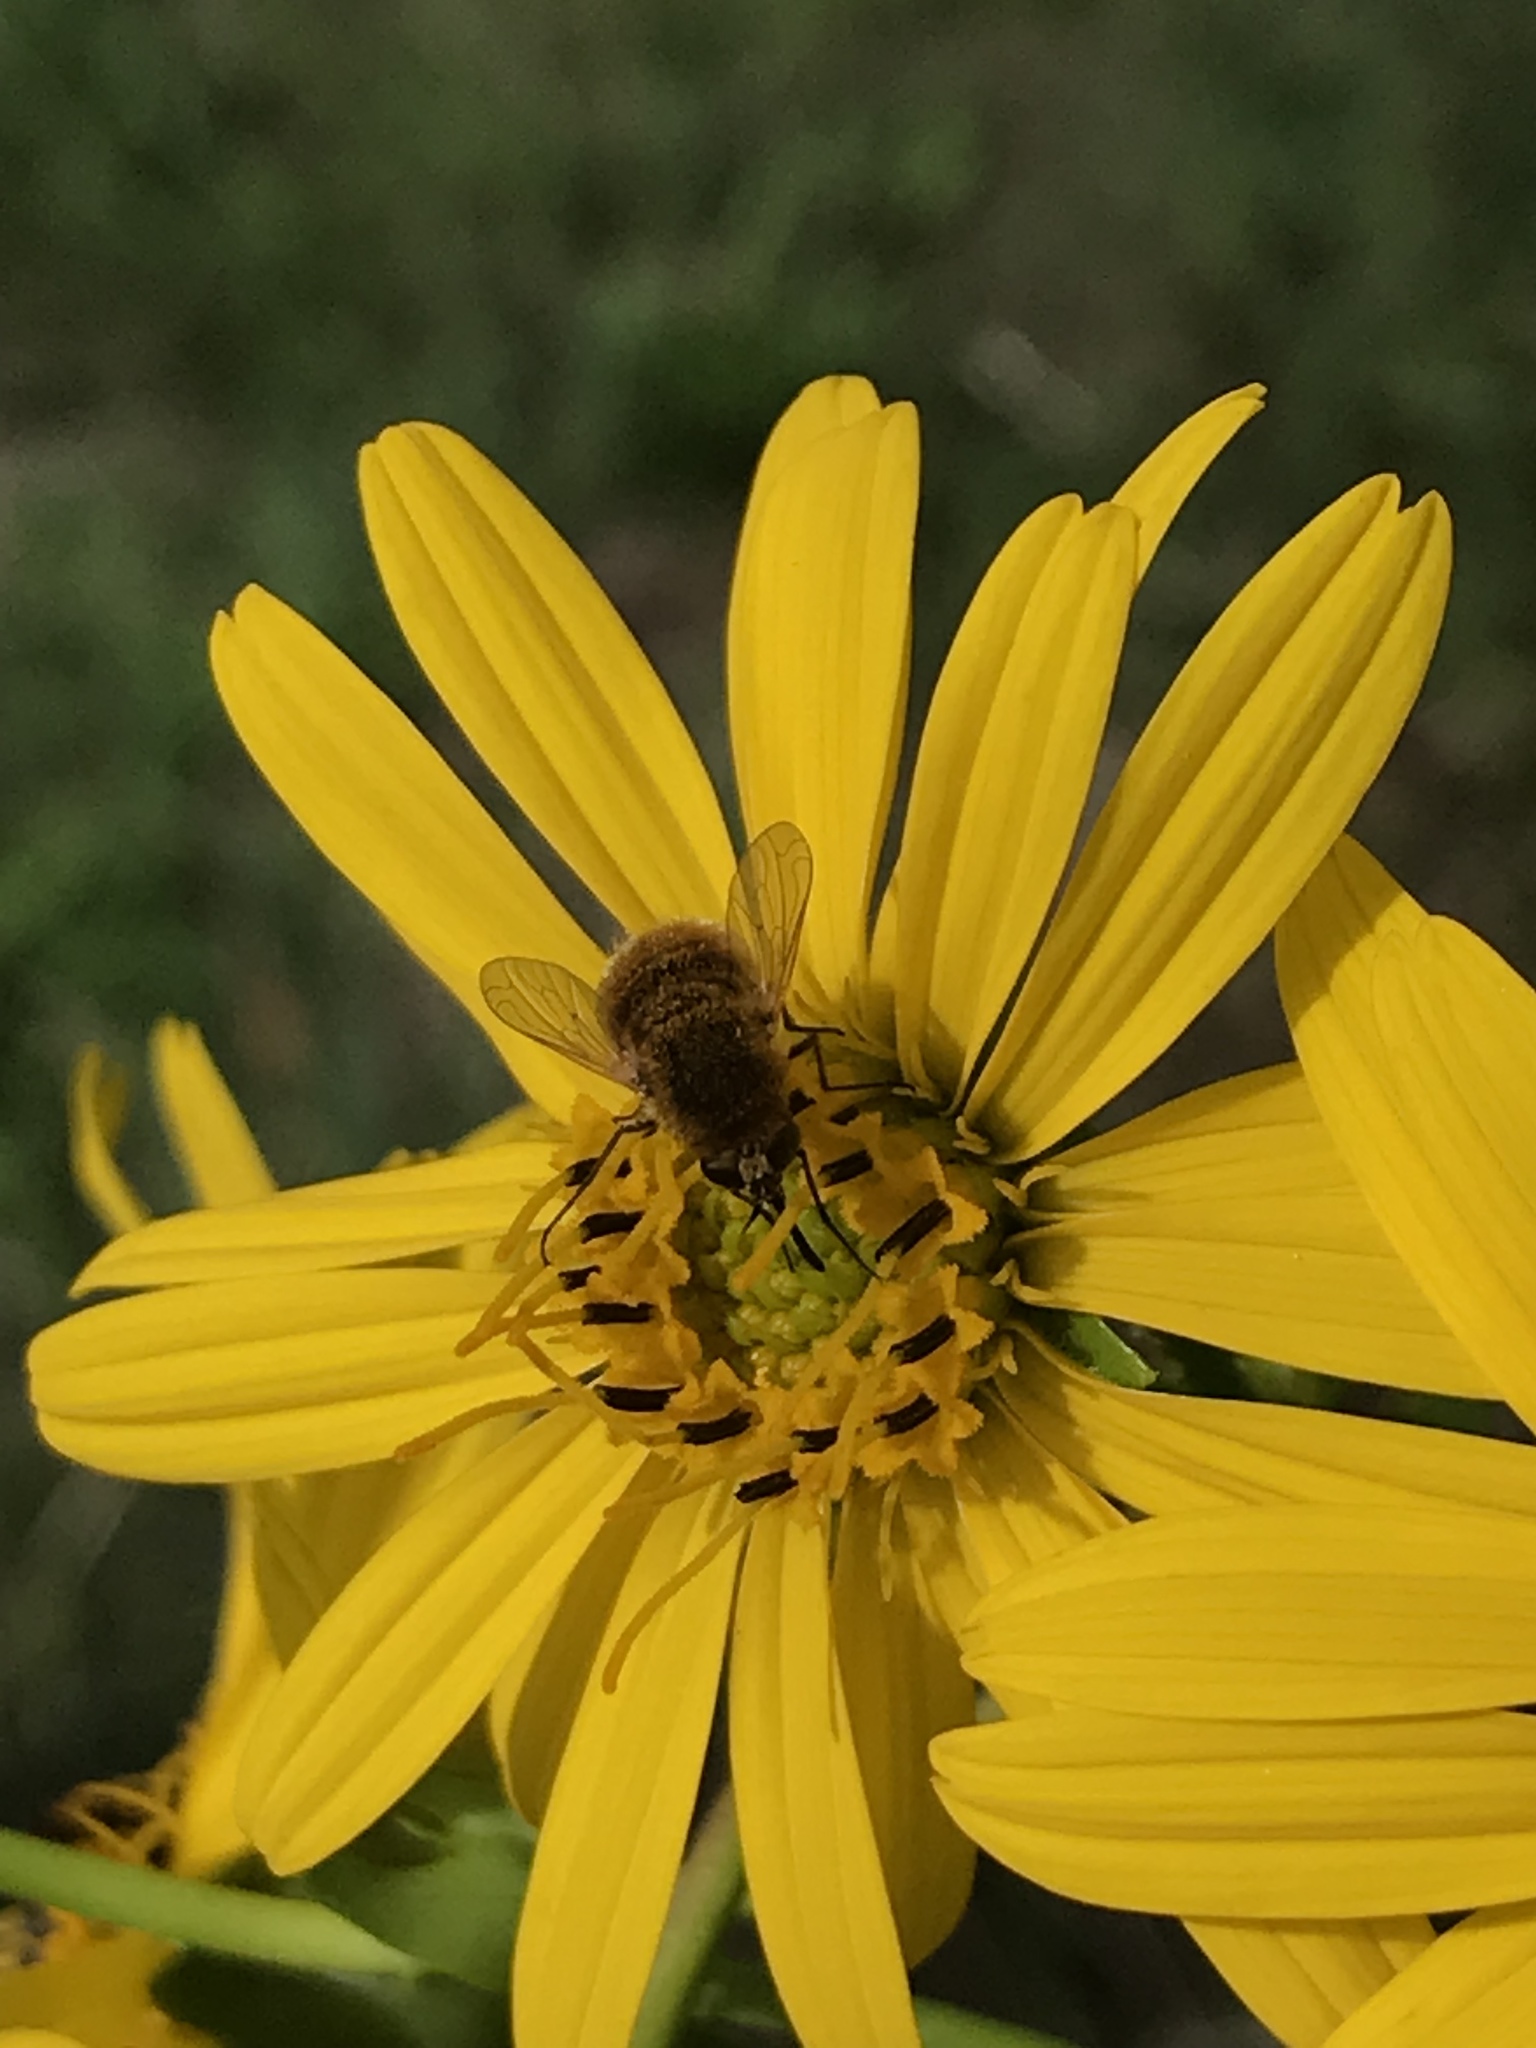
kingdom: Animalia
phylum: Arthropoda
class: Insecta
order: Diptera
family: Bombyliidae
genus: Sparnopolius
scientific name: Sparnopolius confusus
